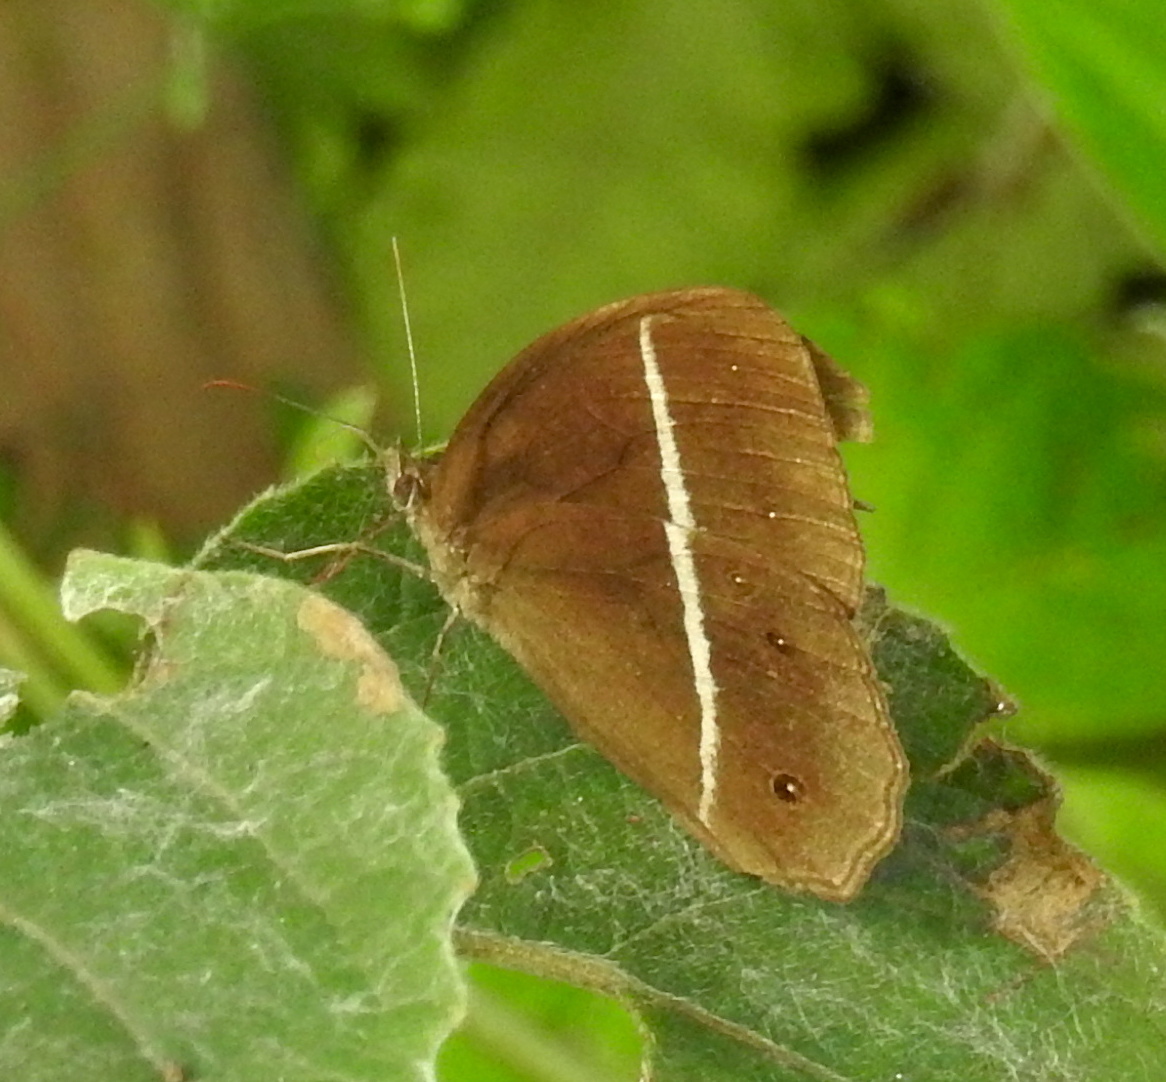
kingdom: Animalia
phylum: Arthropoda
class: Insecta
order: Lepidoptera
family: Nymphalidae
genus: Orsotriaena
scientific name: Orsotriaena medus
